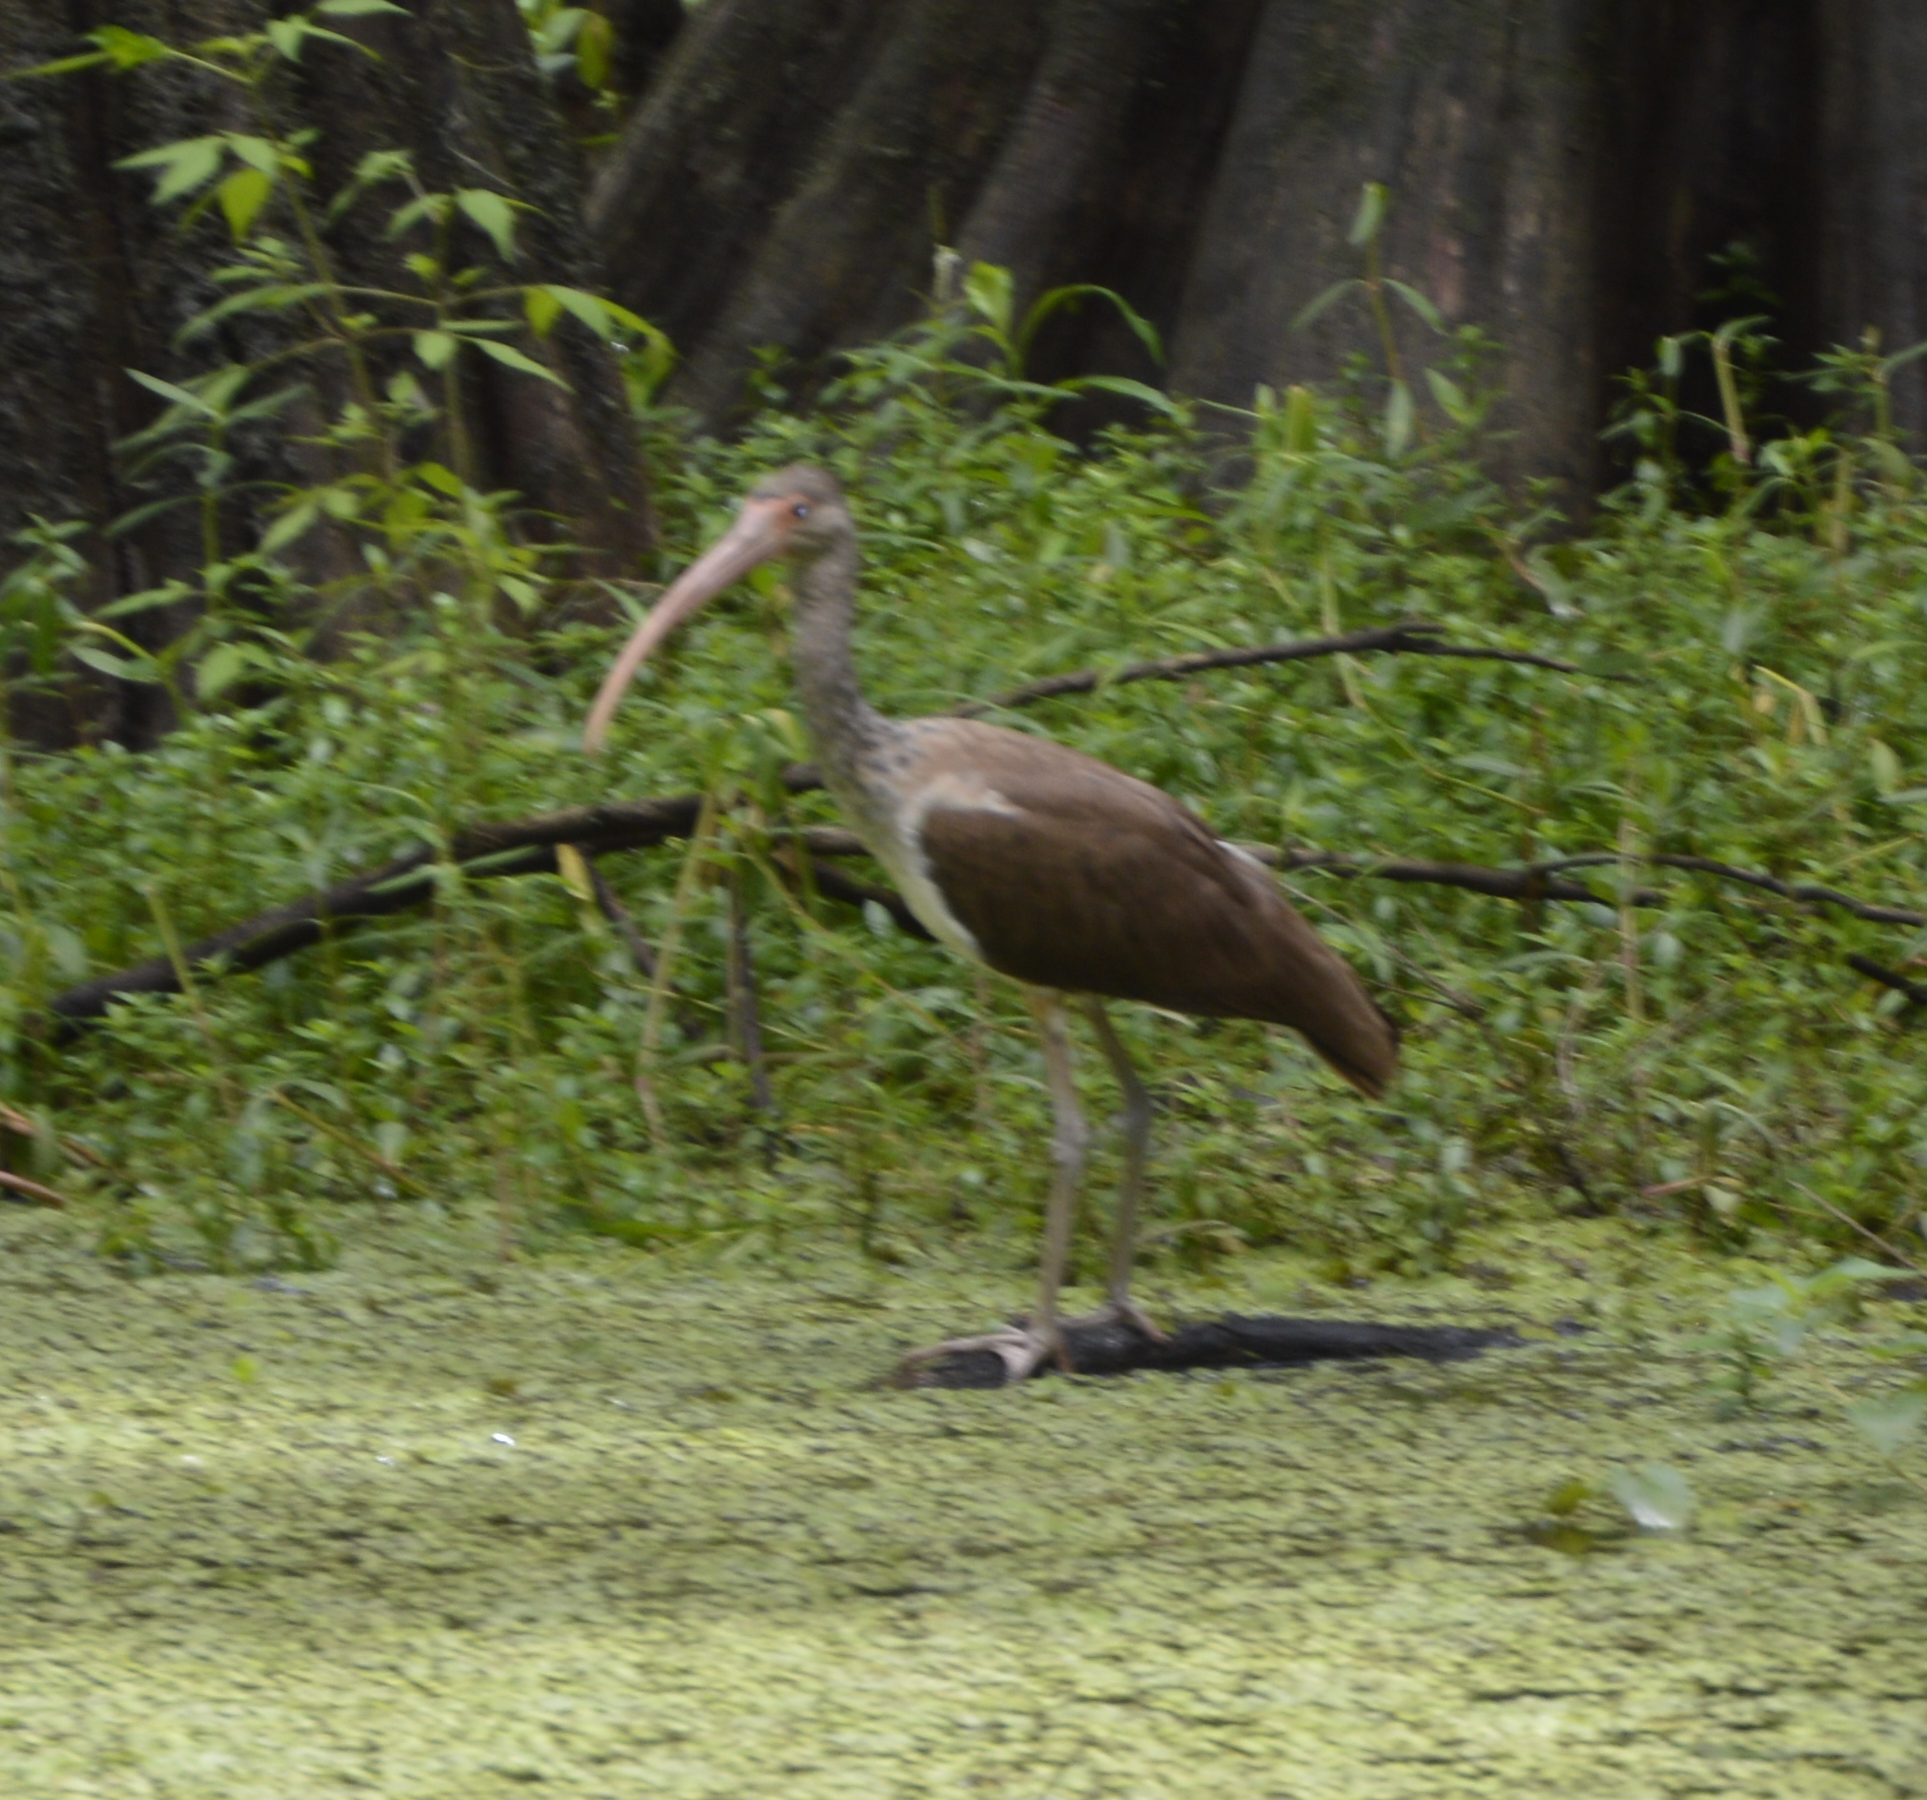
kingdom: Animalia
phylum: Chordata
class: Aves
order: Pelecaniformes
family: Threskiornithidae
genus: Eudocimus
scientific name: Eudocimus albus
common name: White ibis
